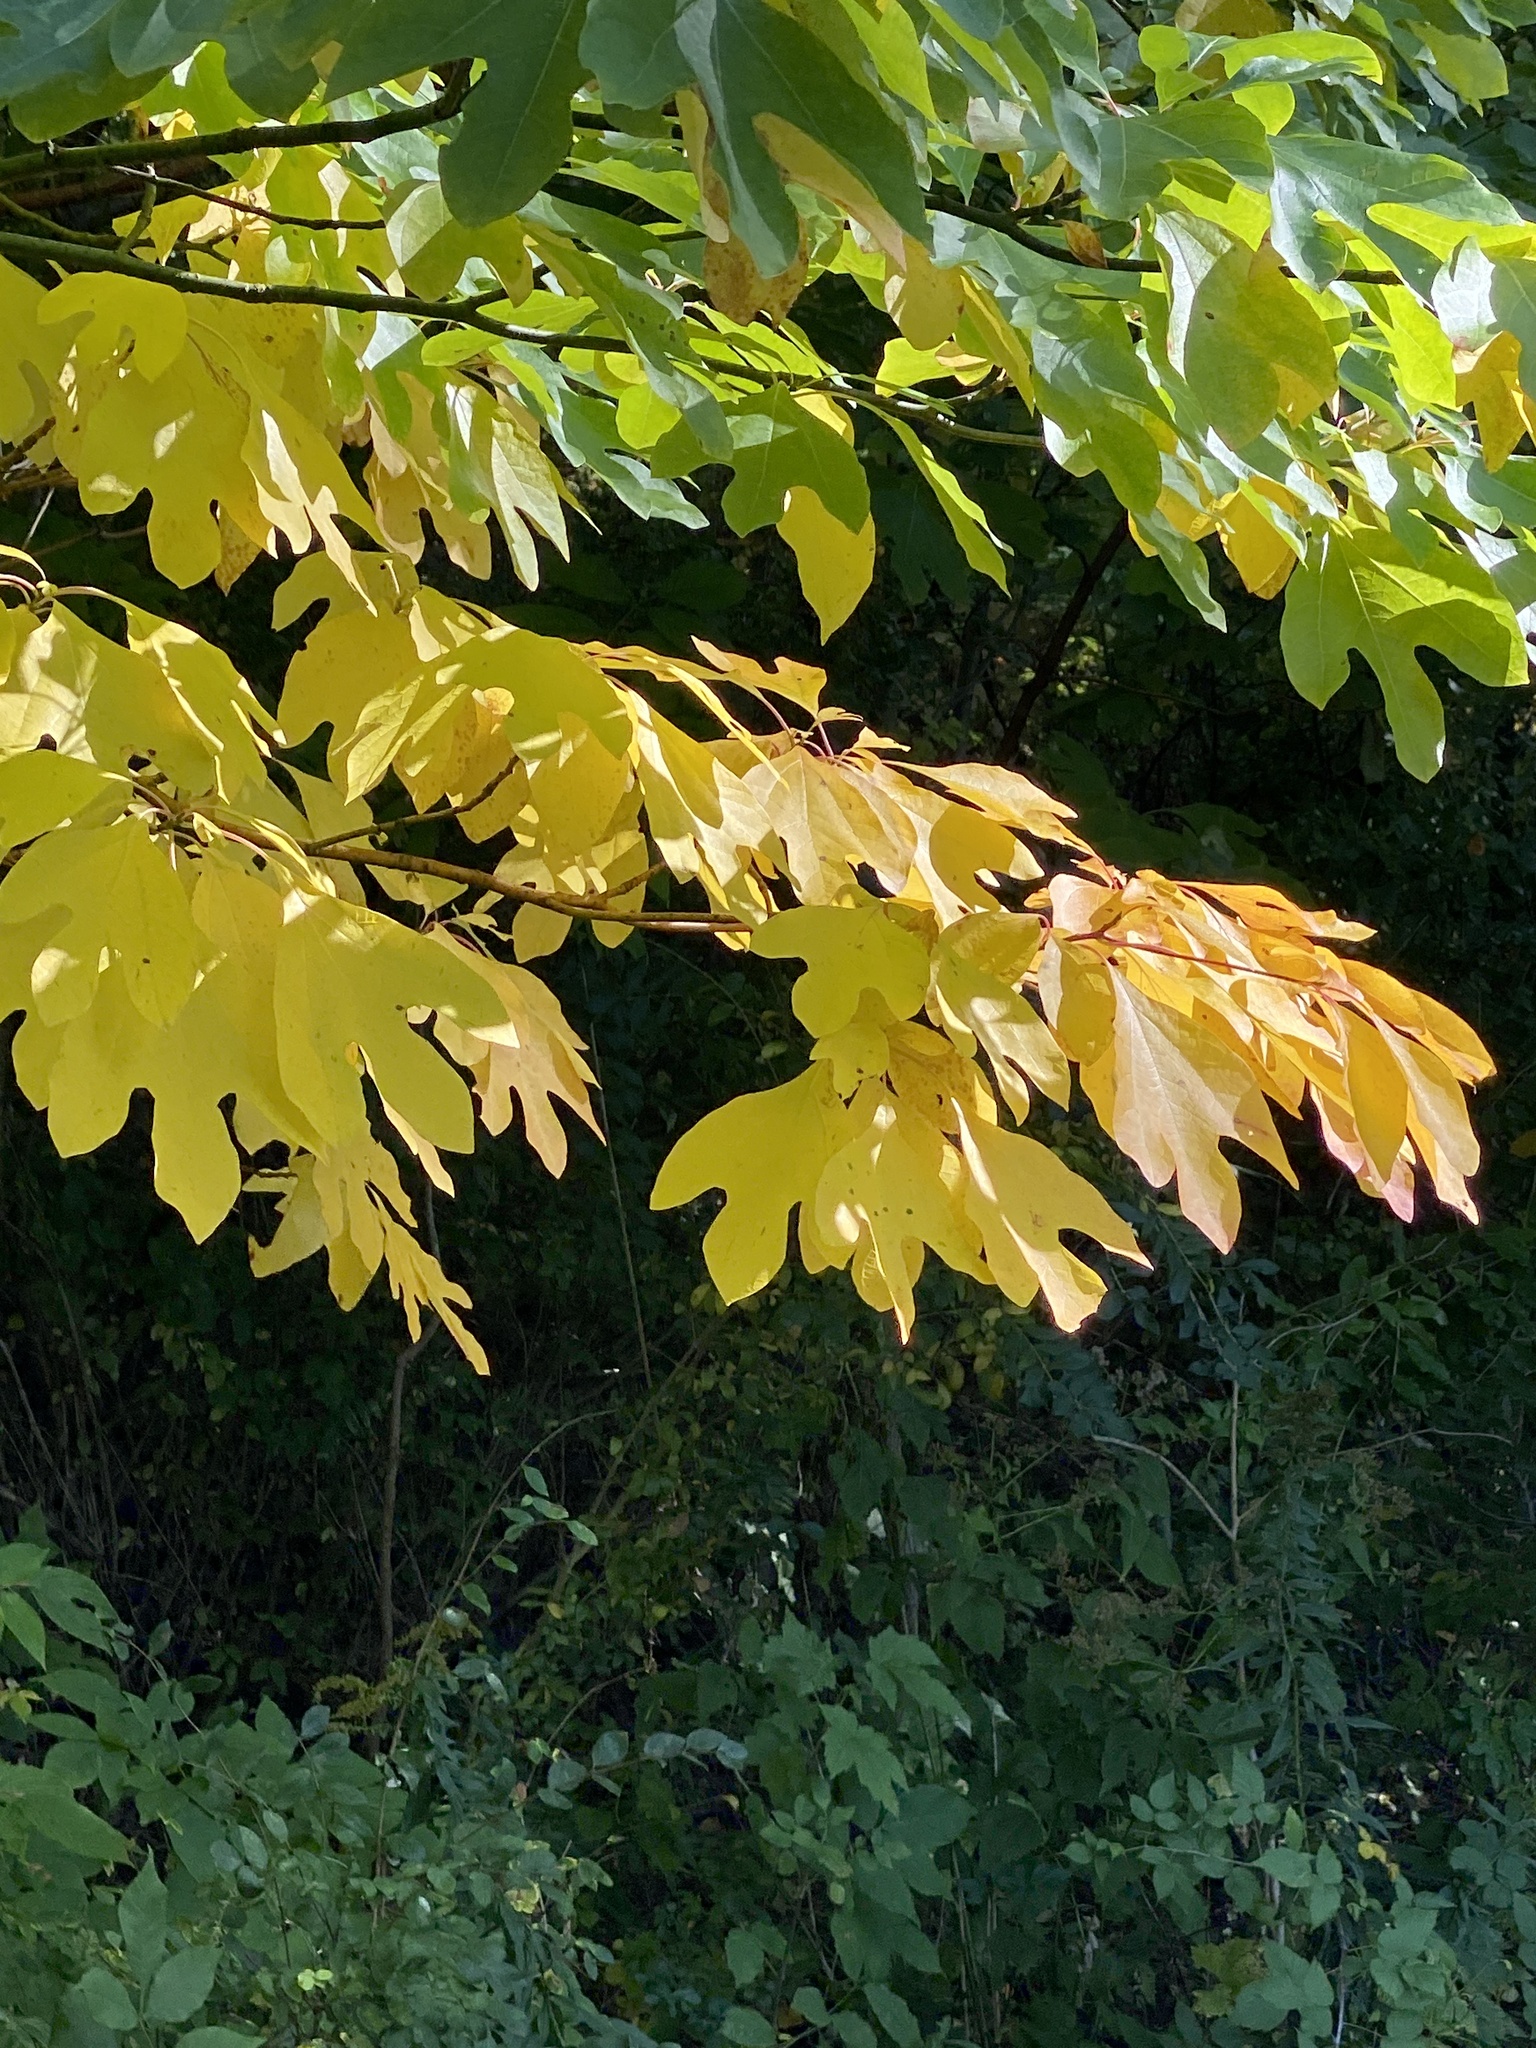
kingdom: Plantae
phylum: Tracheophyta
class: Magnoliopsida
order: Laurales
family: Lauraceae
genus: Sassafras
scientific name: Sassafras albidum
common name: Sassafras
